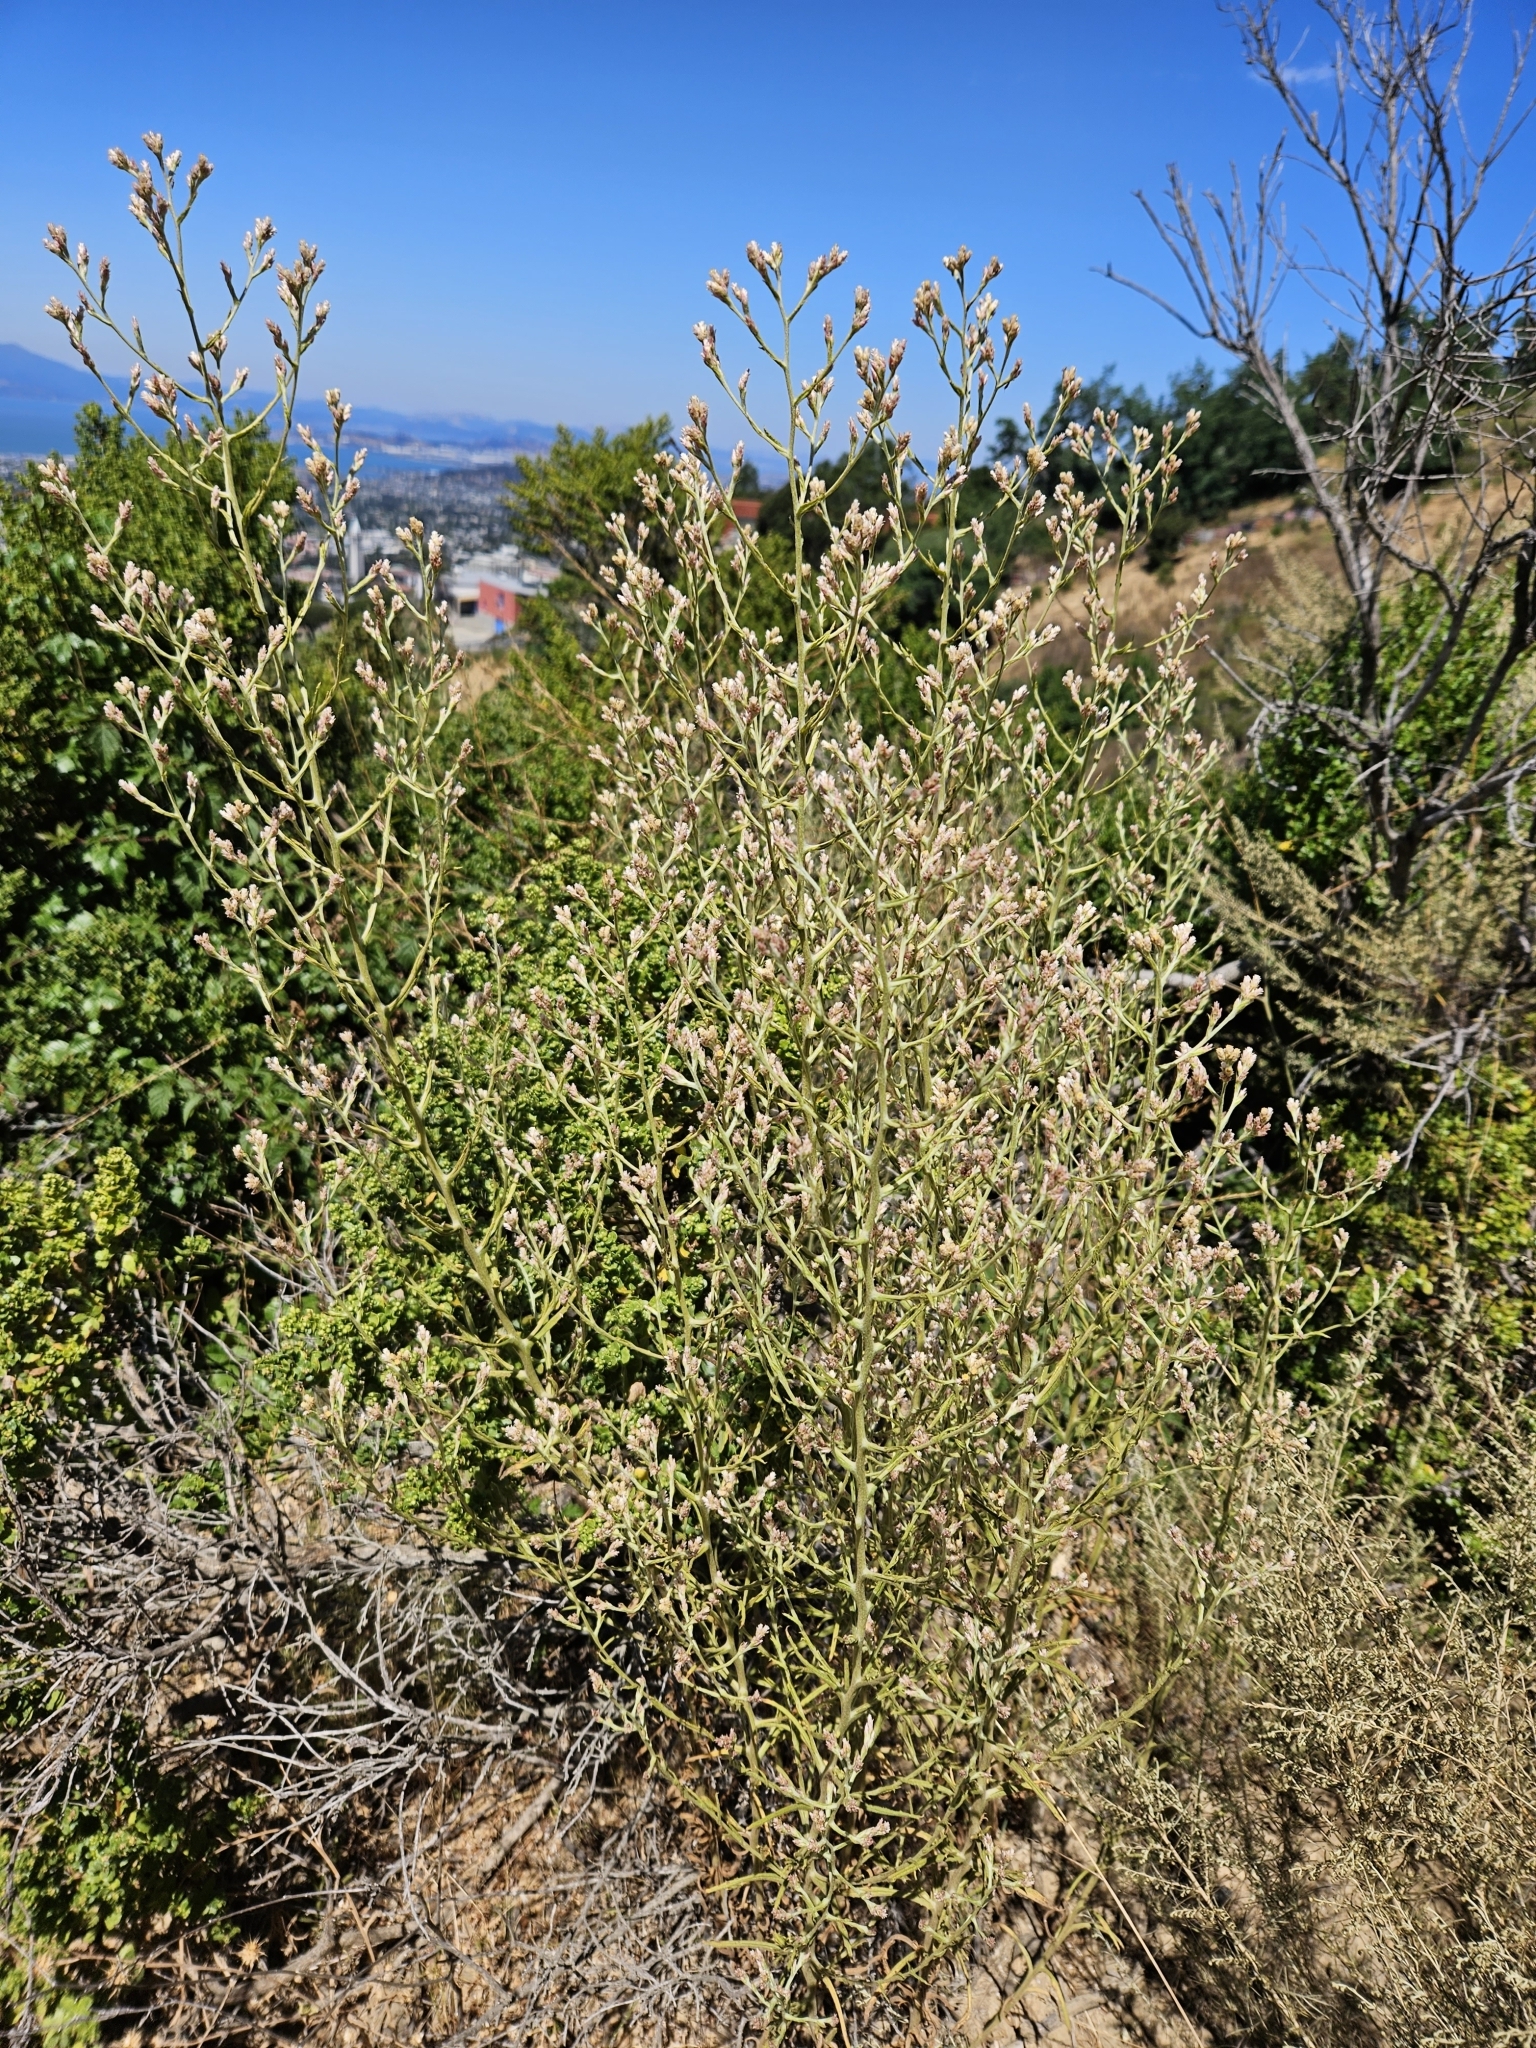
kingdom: Plantae
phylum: Tracheophyta
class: Magnoliopsida
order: Asterales
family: Asteraceae
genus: Pseudognaphalium
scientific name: Pseudognaphalium ramosissimum
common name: Pink rabbit-tobacco
